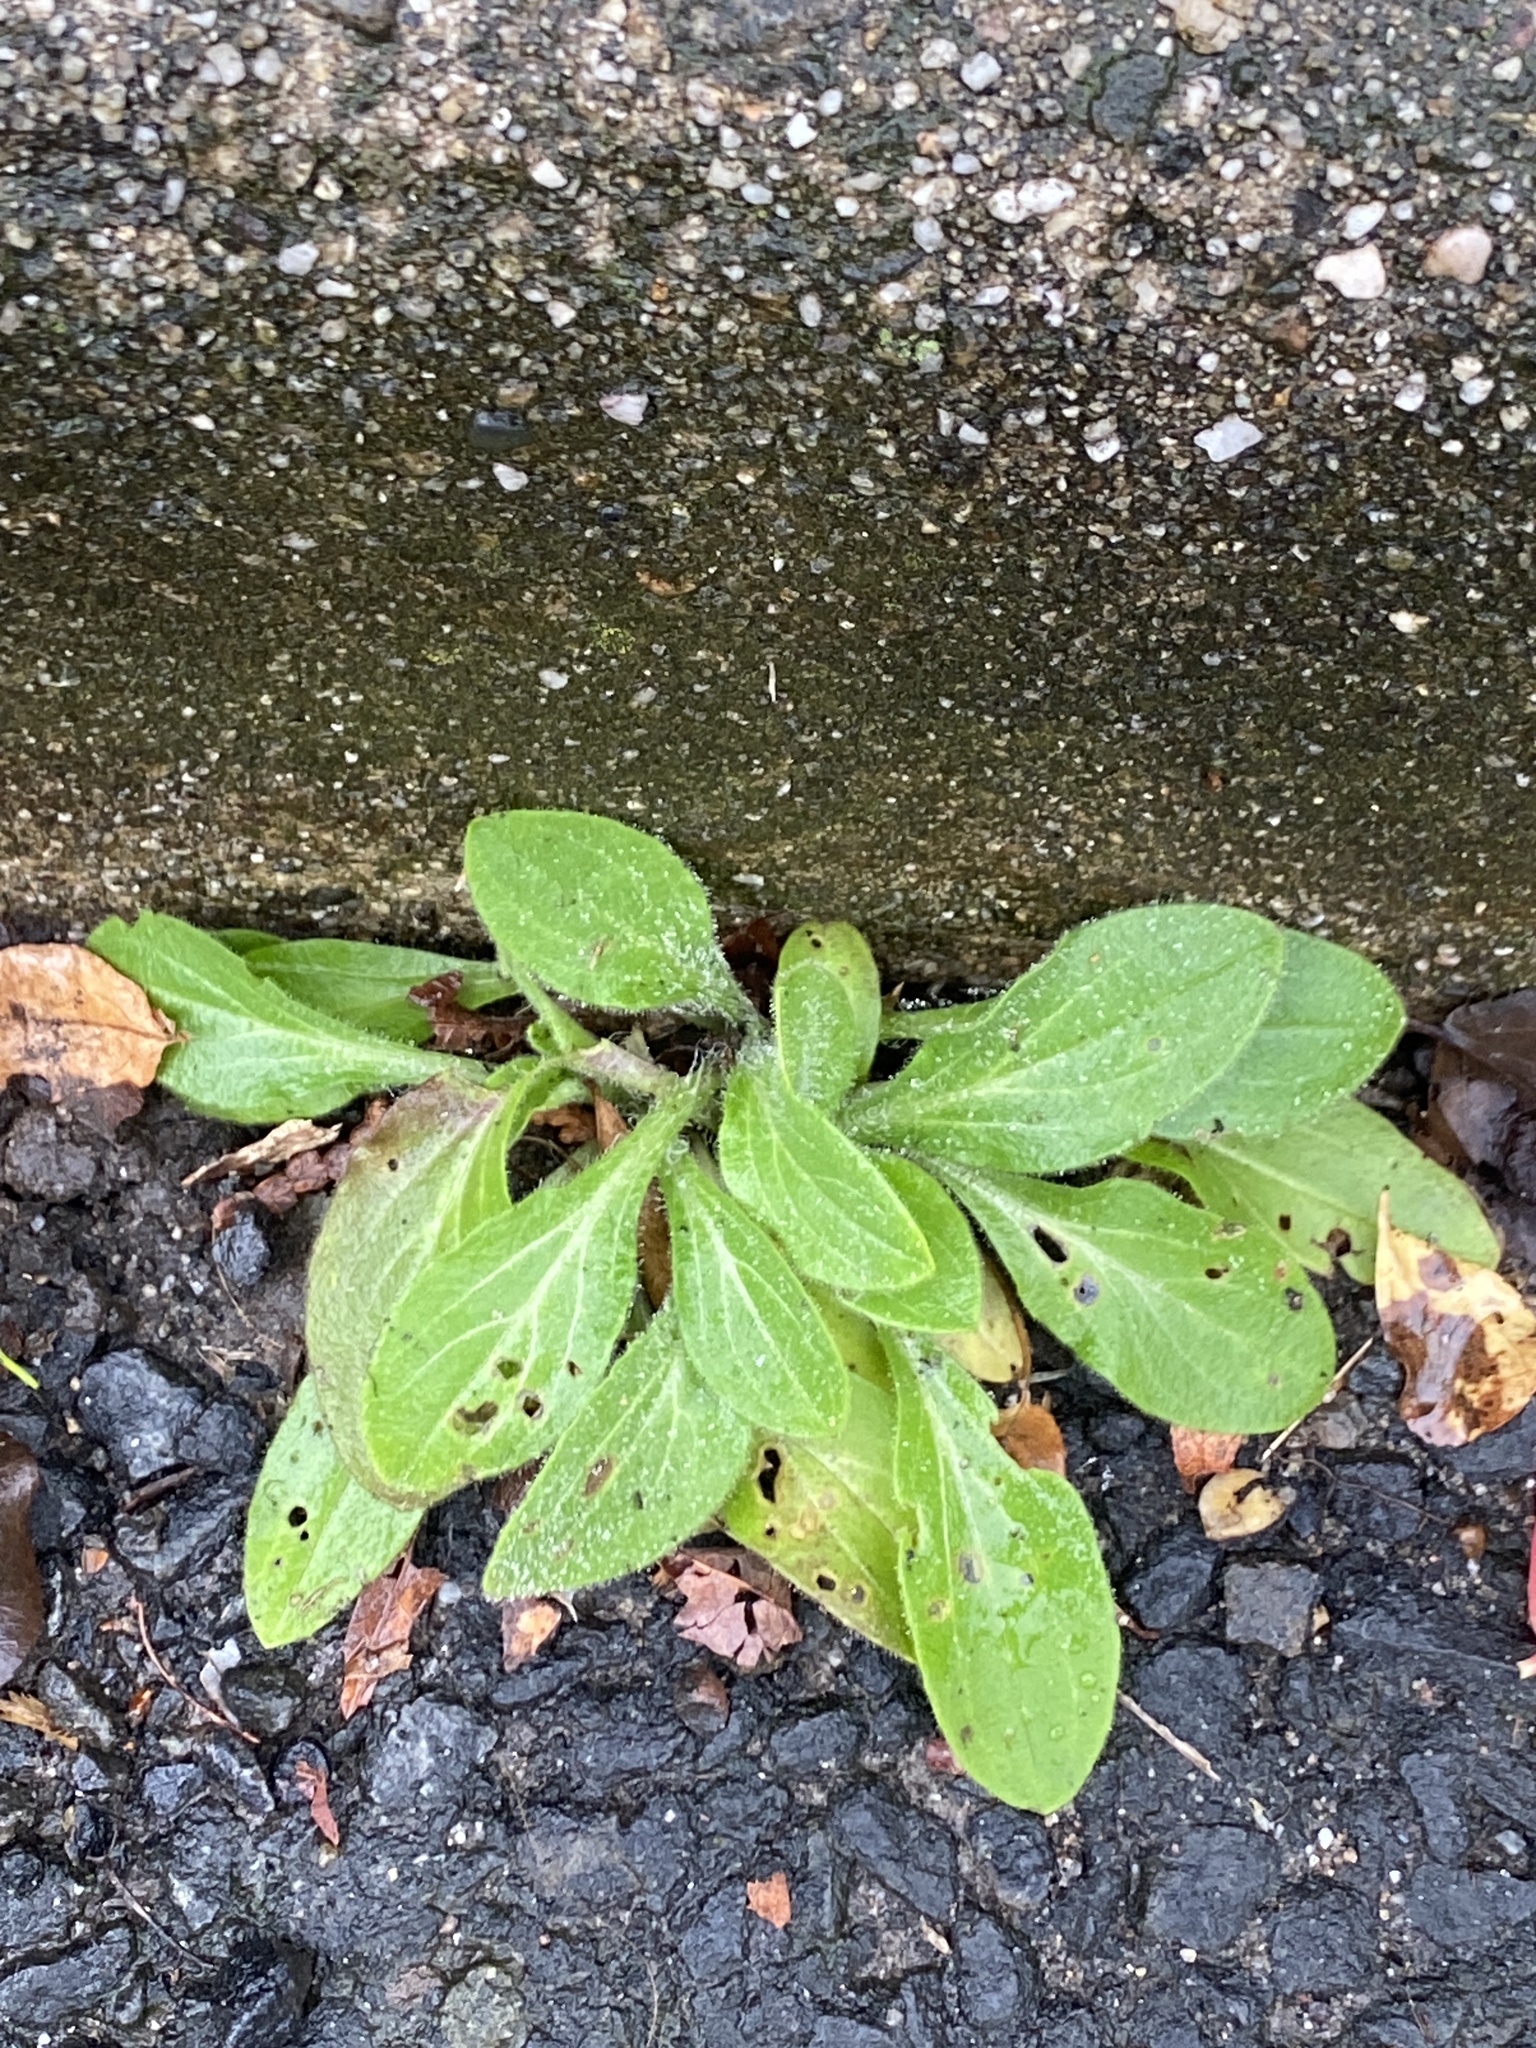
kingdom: Plantae
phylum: Tracheophyta
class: Magnoliopsida
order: Caryophyllales
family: Caryophyllaceae
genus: Silene
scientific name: Silene latifolia
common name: White campion
